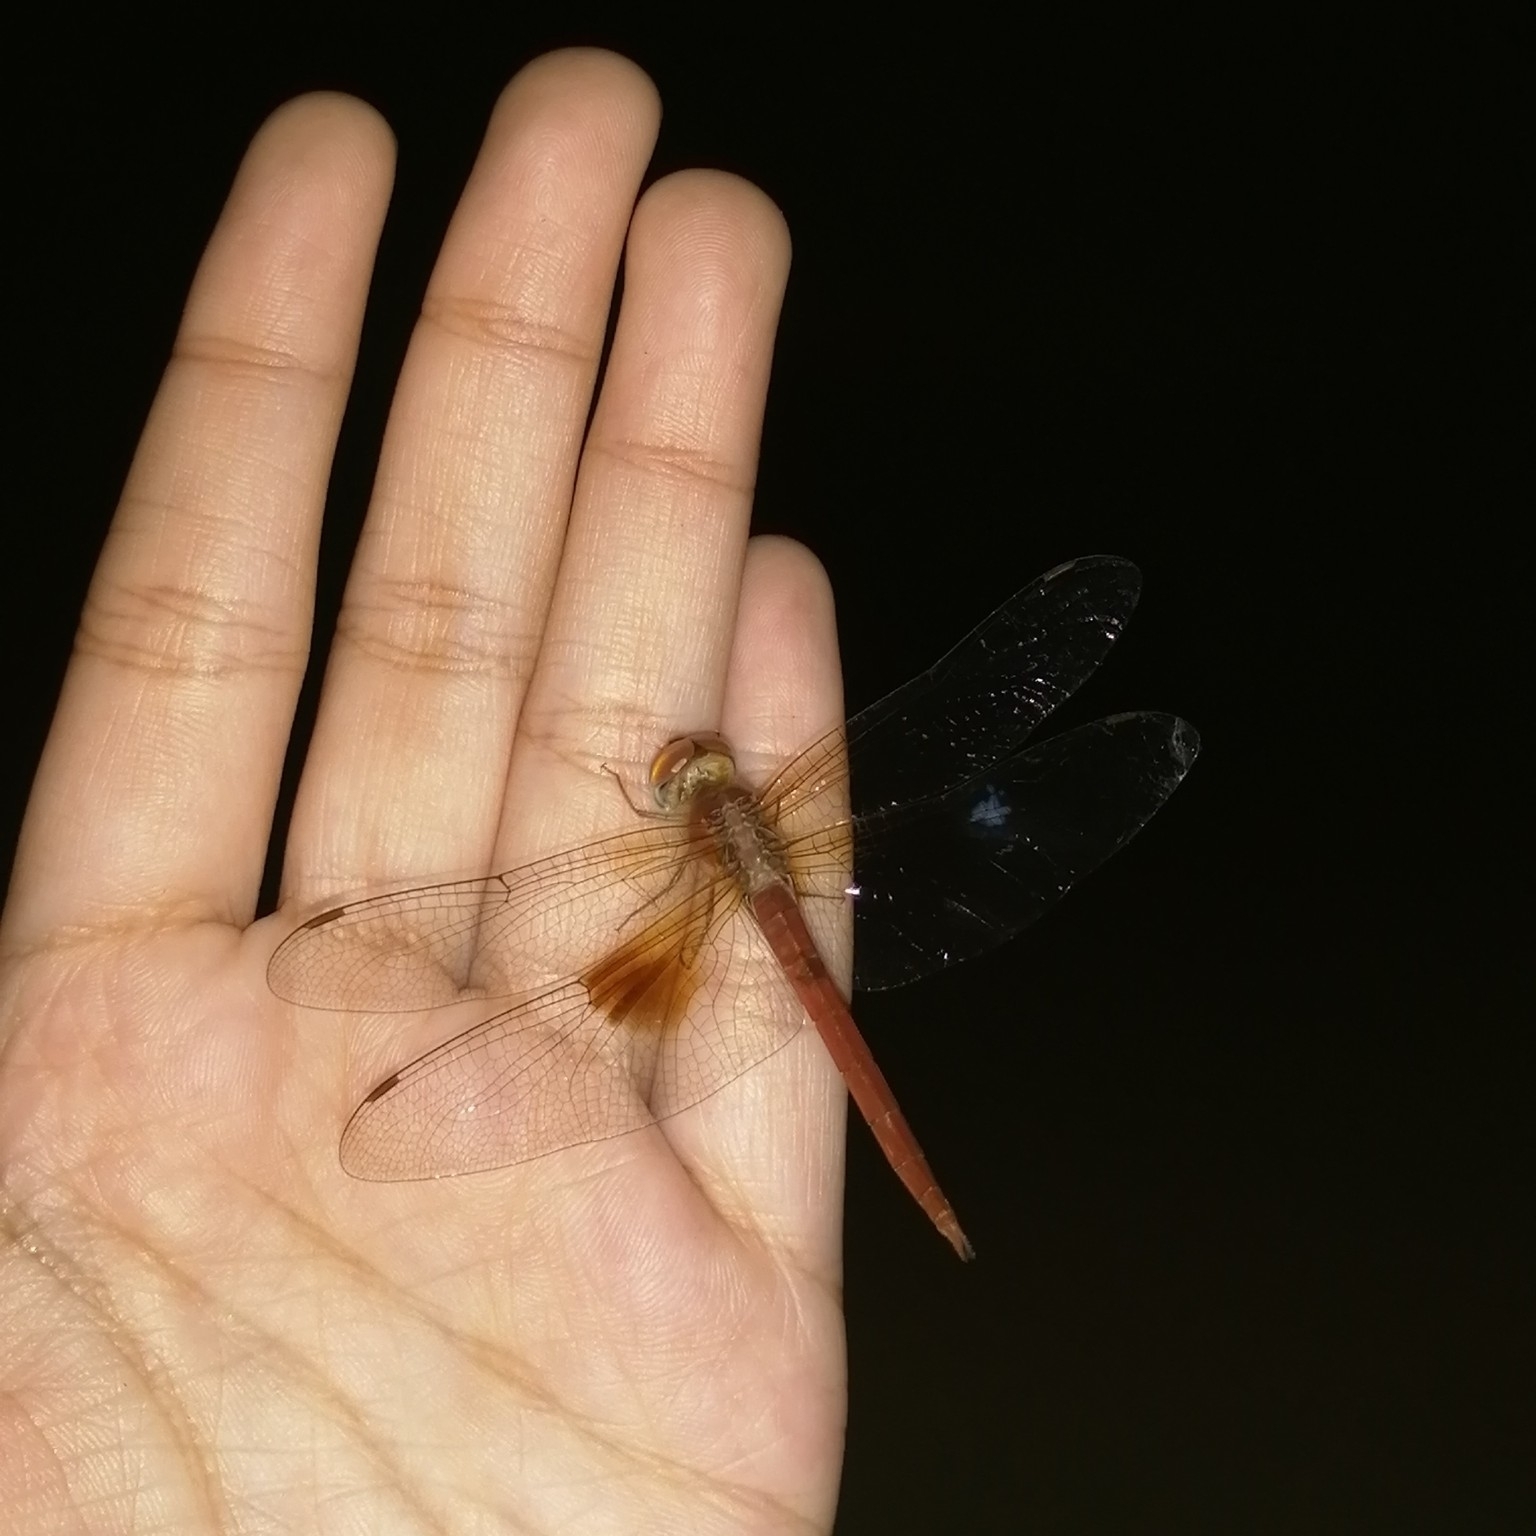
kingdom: Animalia
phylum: Arthropoda
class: Insecta
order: Odonata
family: Libellulidae
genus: Tholymis
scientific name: Tholymis tillarga
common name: Coral-tailed cloud wing
